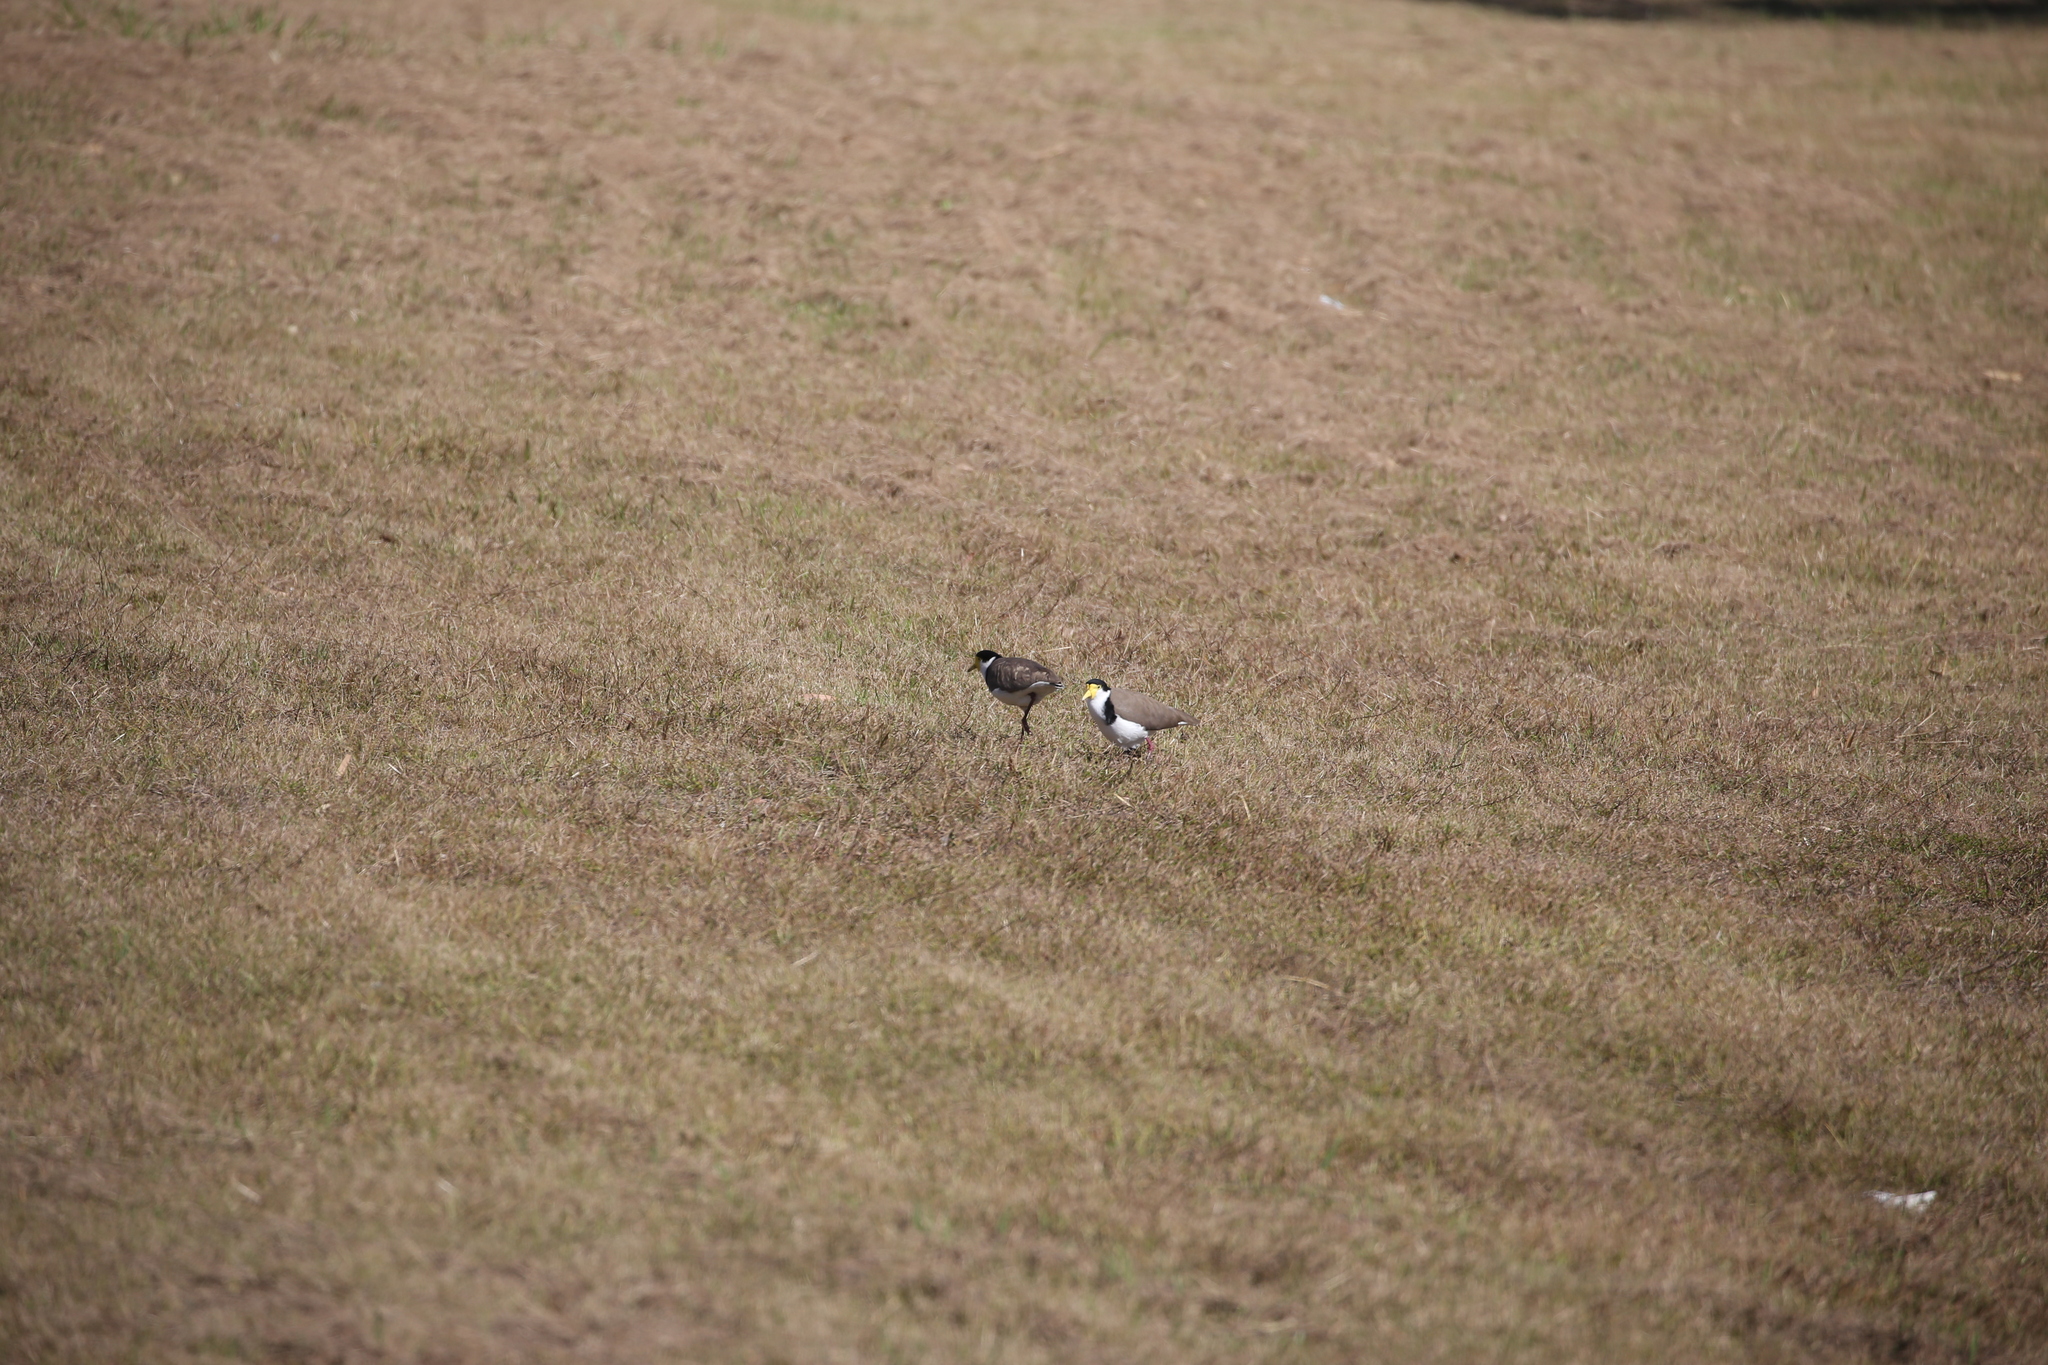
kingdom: Animalia
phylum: Chordata
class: Aves
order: Charadriiformes
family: Charadriidae
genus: Vanellus
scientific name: Vanellus miles
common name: Masked lapwing
